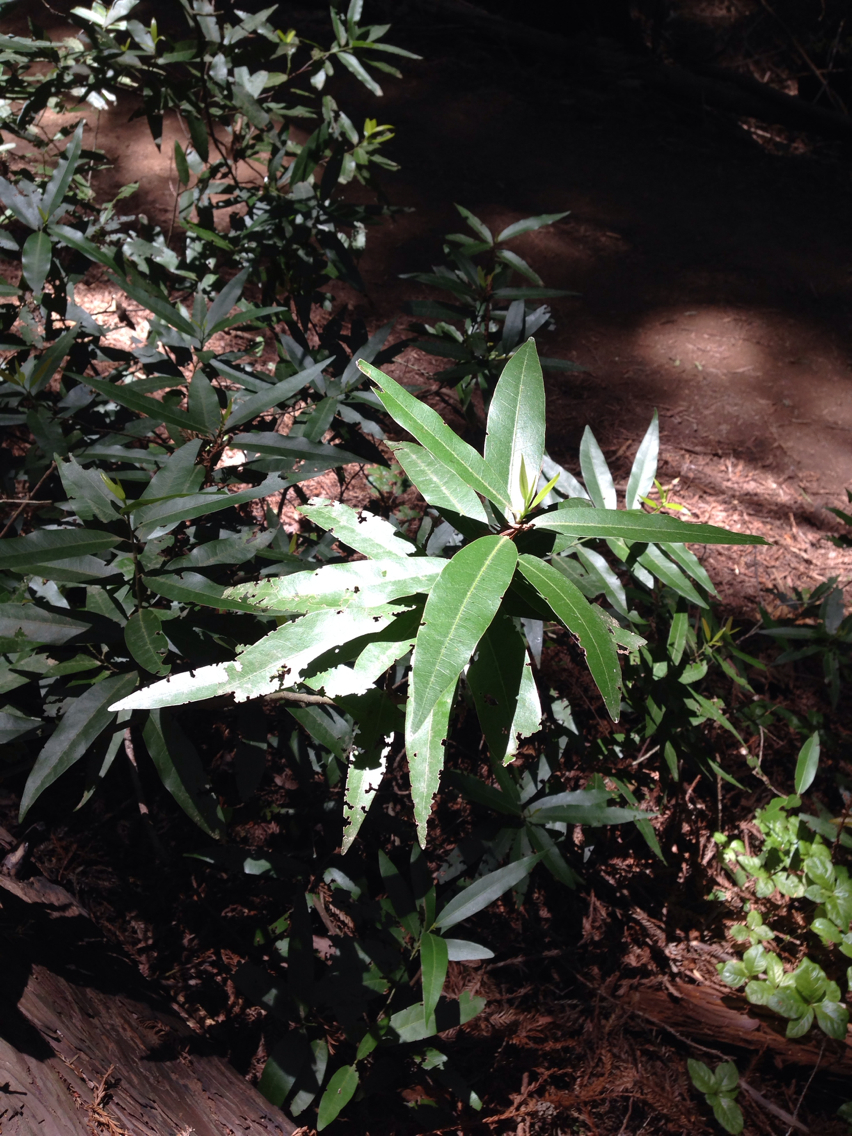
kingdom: Plantae
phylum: Tracheophyta
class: Magnoliopsida
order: Laurales
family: Lauraceae
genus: Umbellularia
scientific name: Umbellularia californica
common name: California bay
